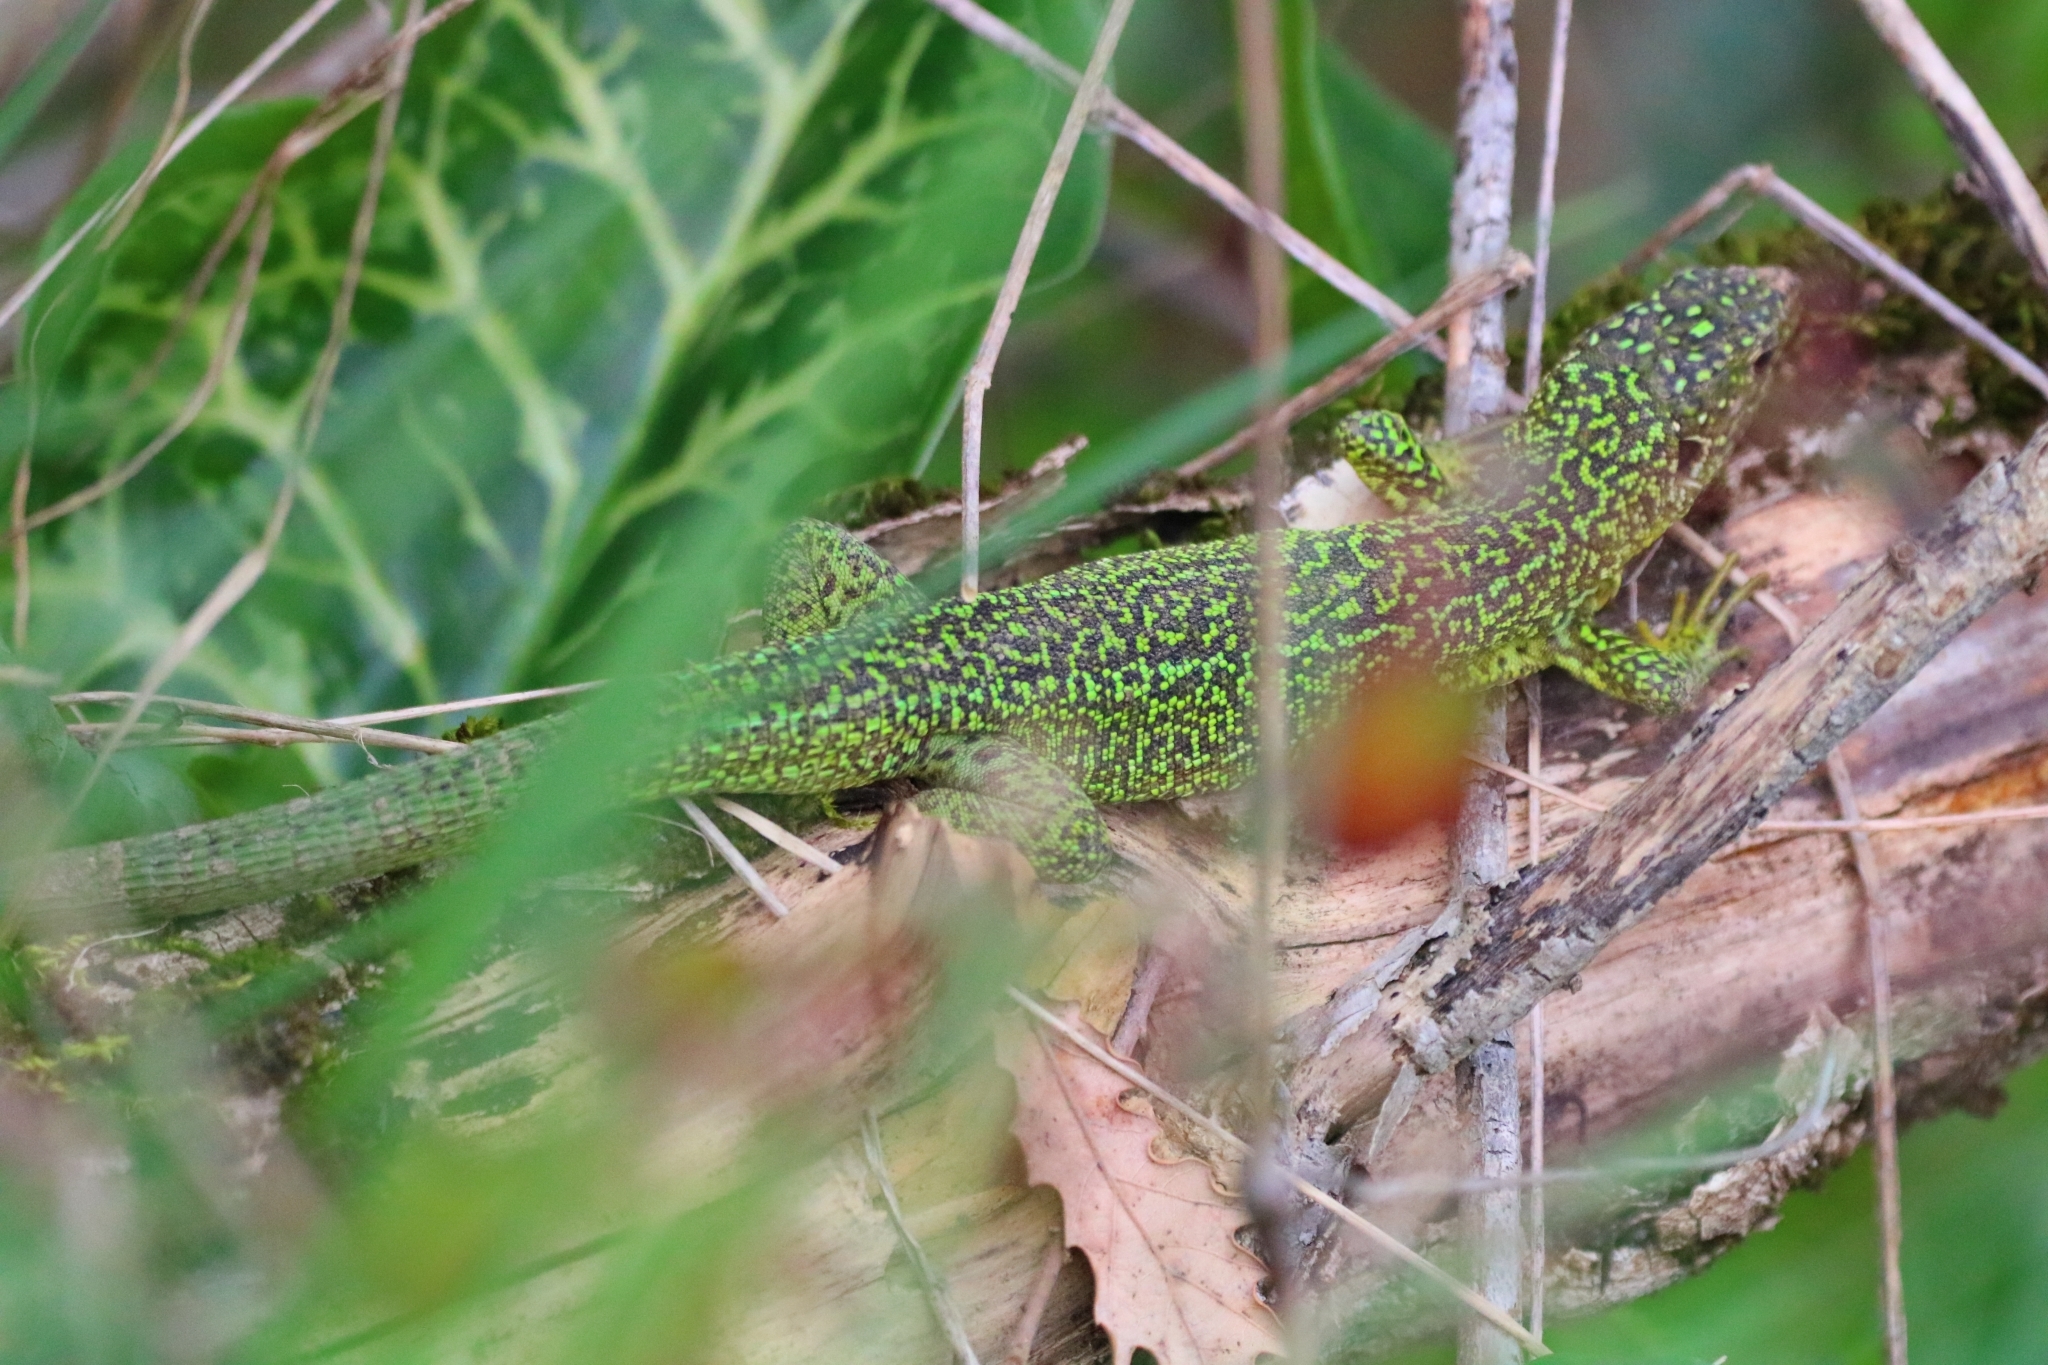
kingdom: Animalia
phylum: Chordata
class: Squamata
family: Lacertidae
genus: Lacerta
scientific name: Lacerta bilineata
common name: Western green lizard
